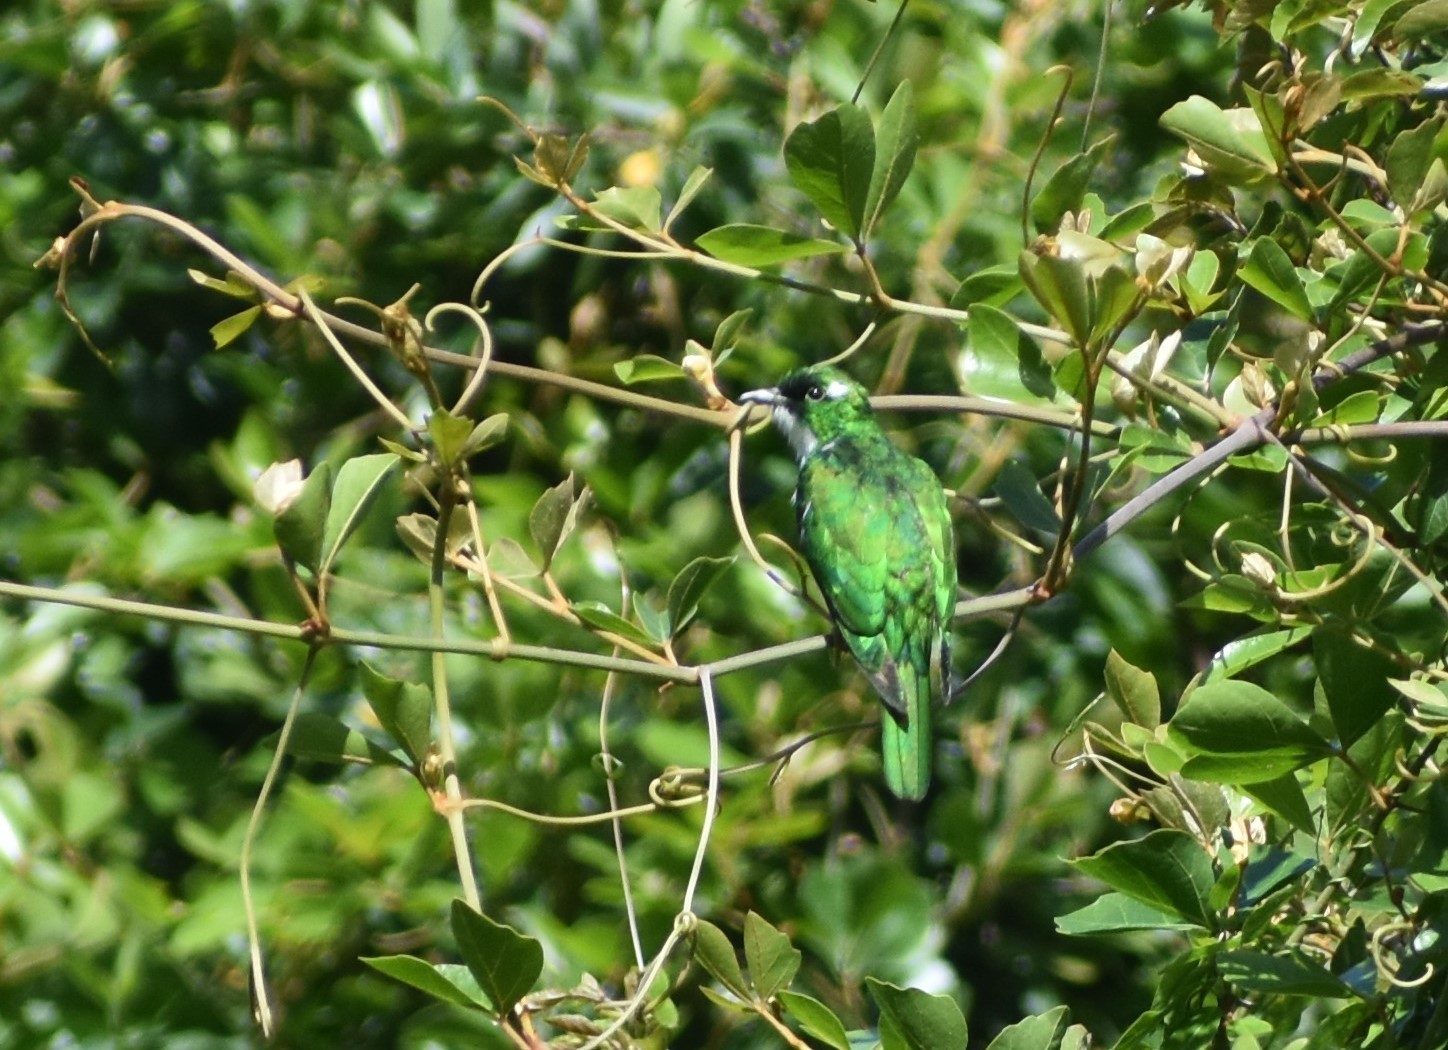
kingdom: Animalia
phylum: Chordata
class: Aves
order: Cuculiformes
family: Cuculidae
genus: Chrysococcyx
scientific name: Chrysococcyx klaas
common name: Klaas's cuckoo
